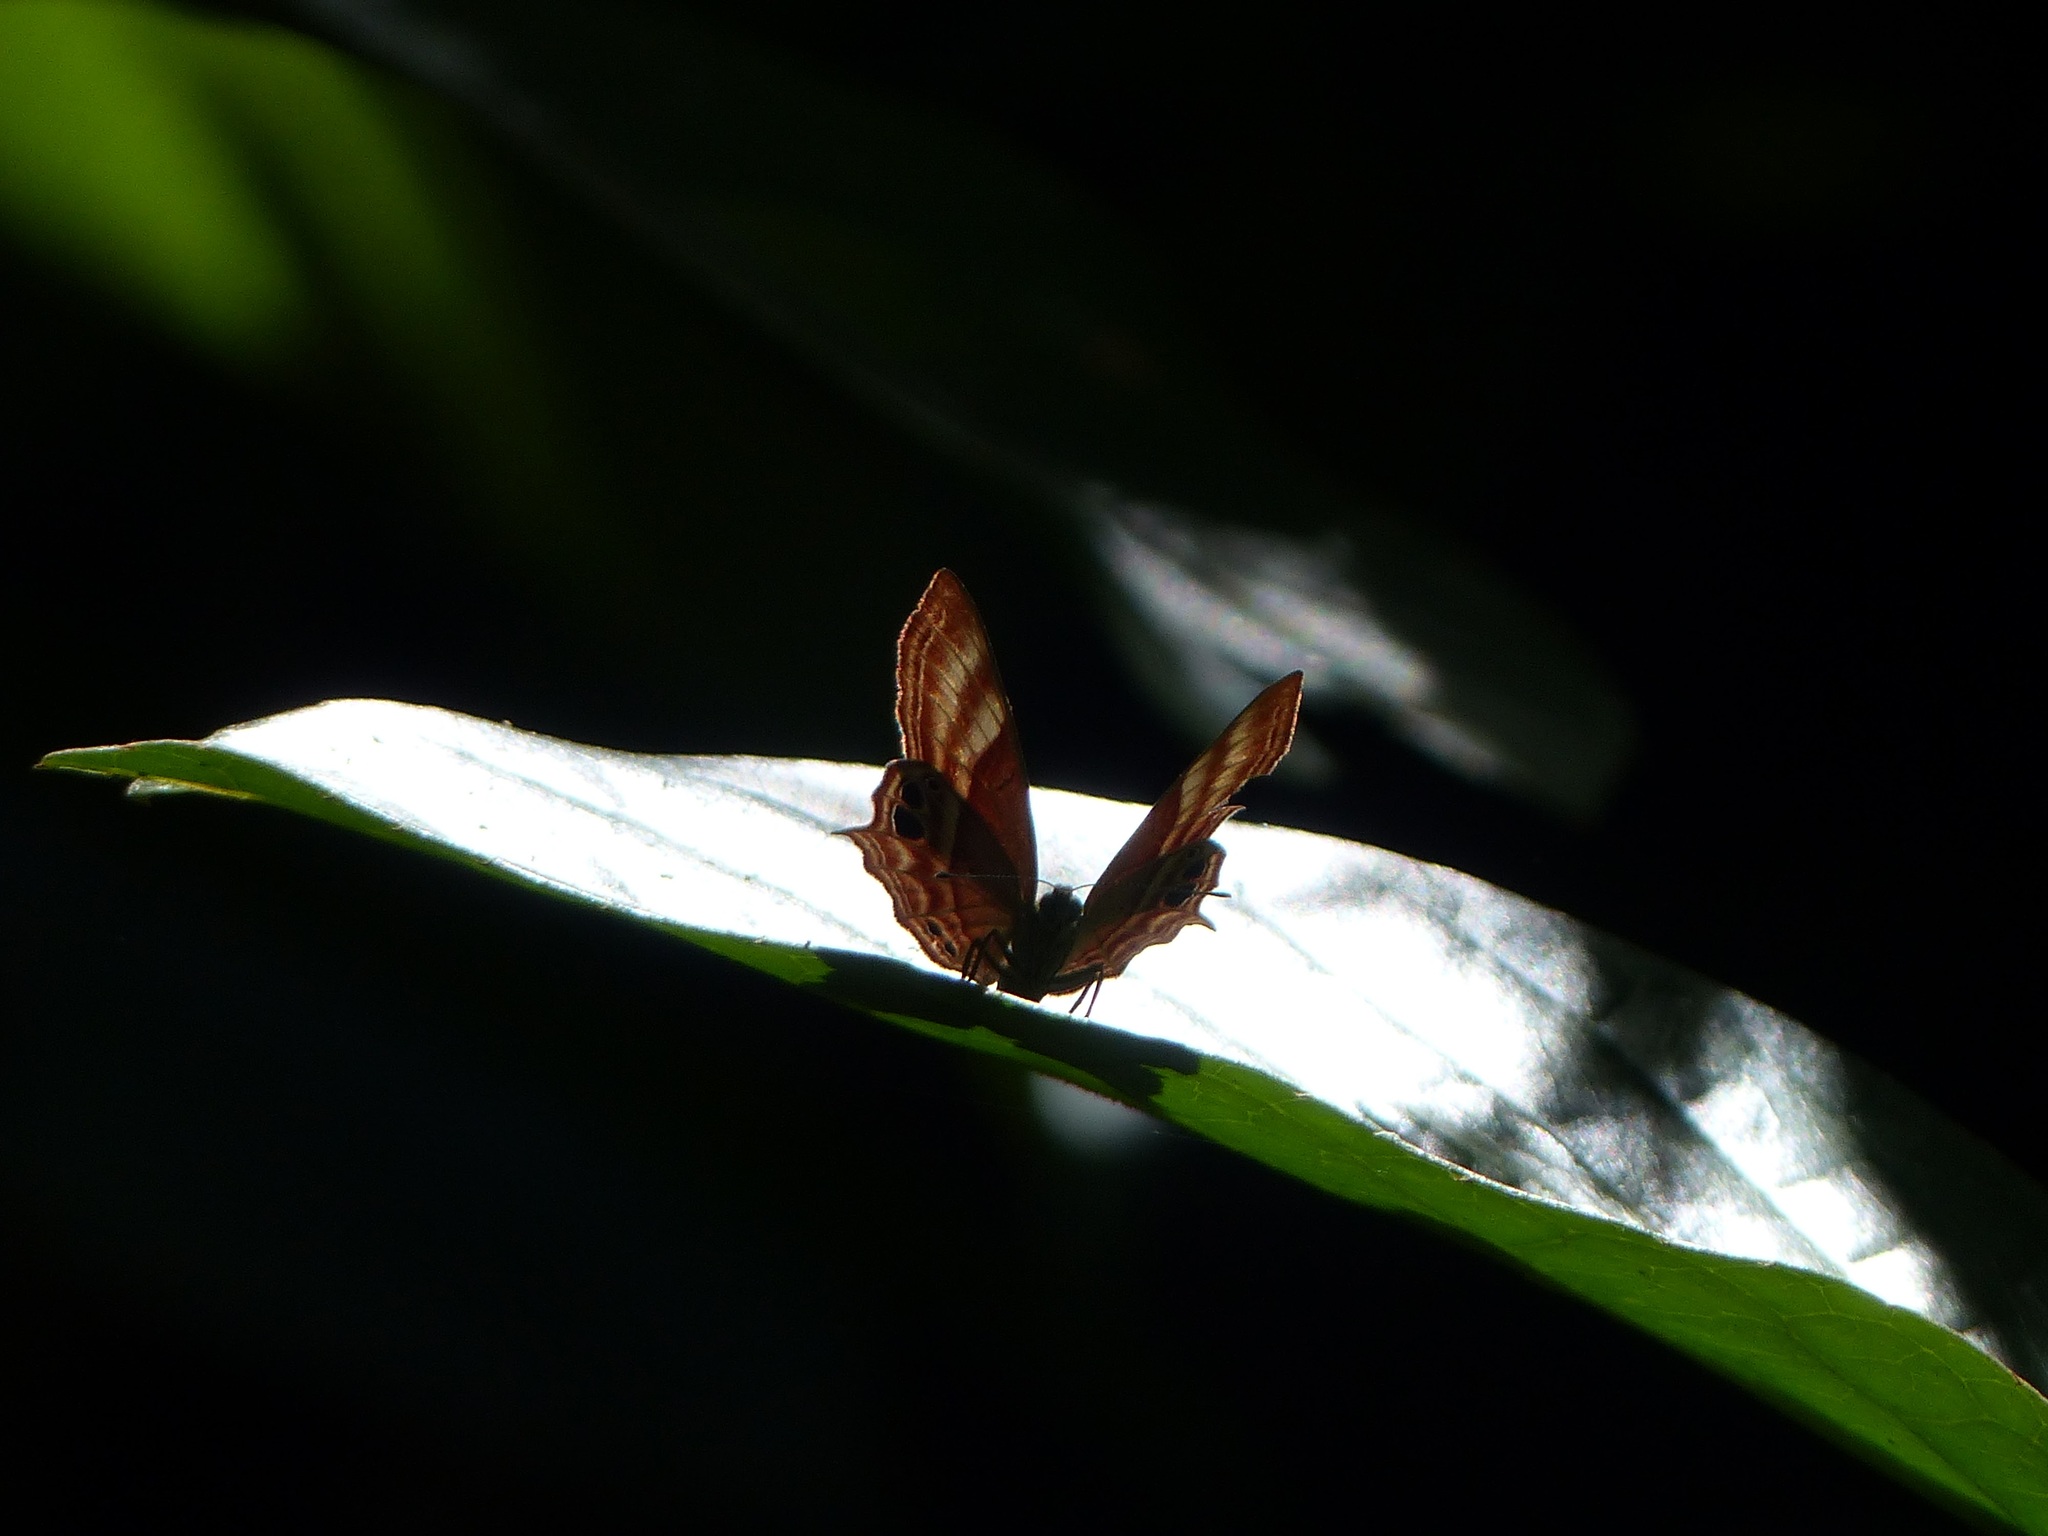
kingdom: Animalia
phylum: Arthropoda
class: Insecta
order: Lepidoptera
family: Lycaenidae
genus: Abisara
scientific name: Abisara echeria
